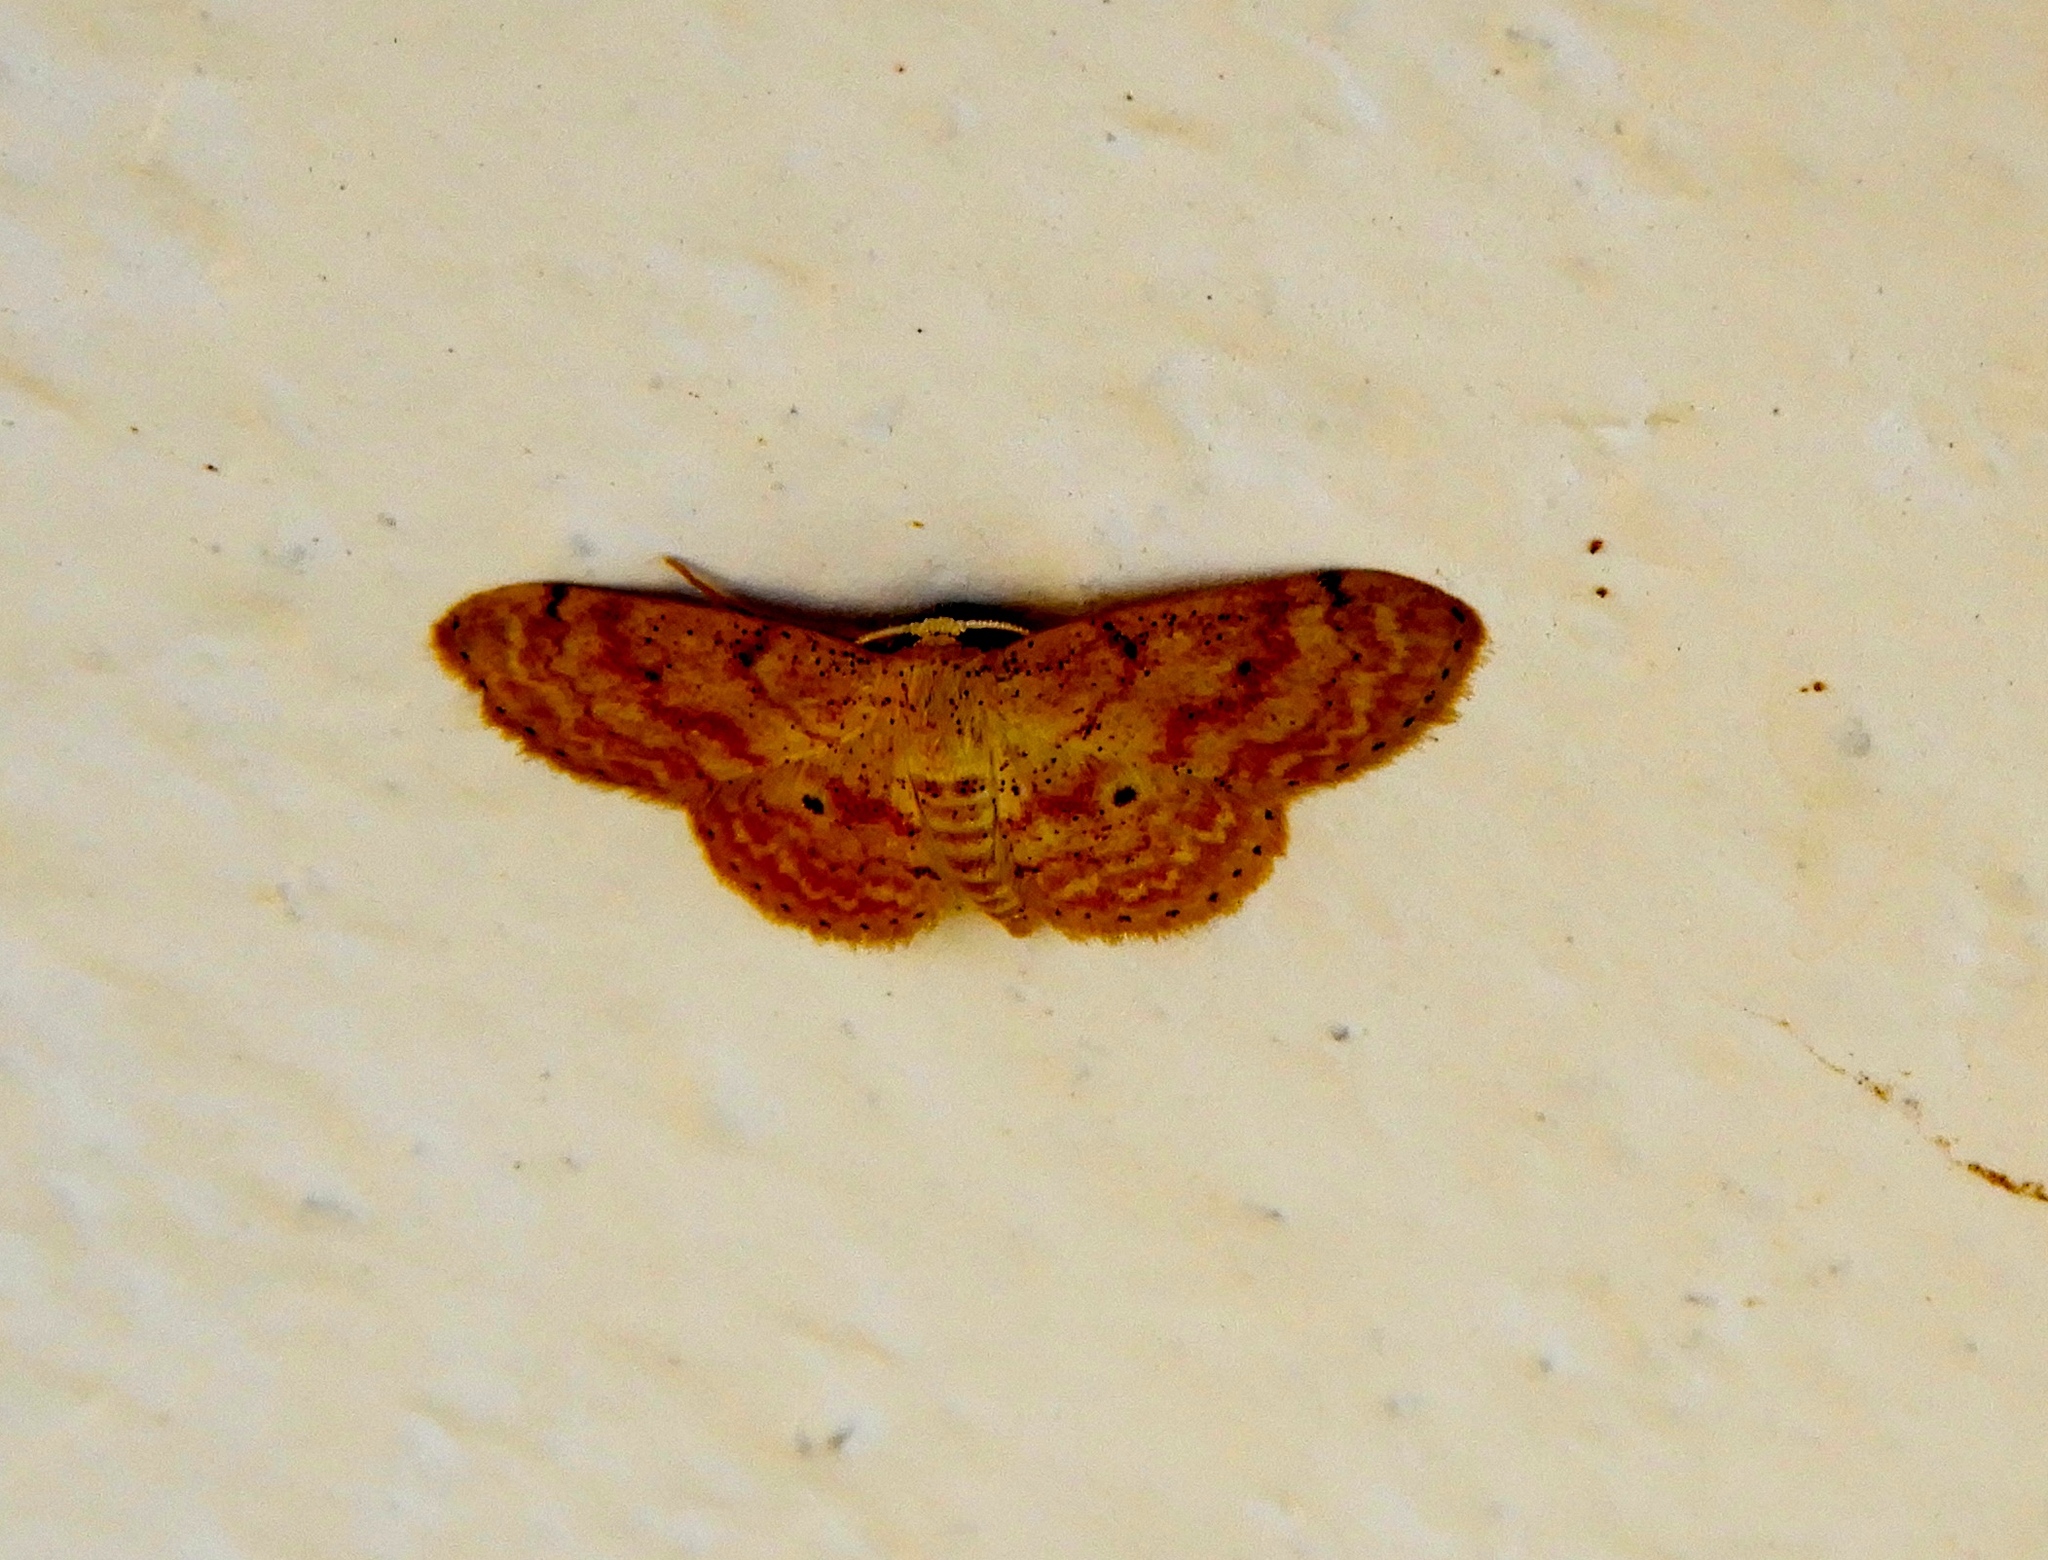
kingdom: Animalia
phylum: Arthropoda
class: Insecta
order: Lepidoptera
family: Geometridae
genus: Sterrhinae
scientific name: Sterrhinae
